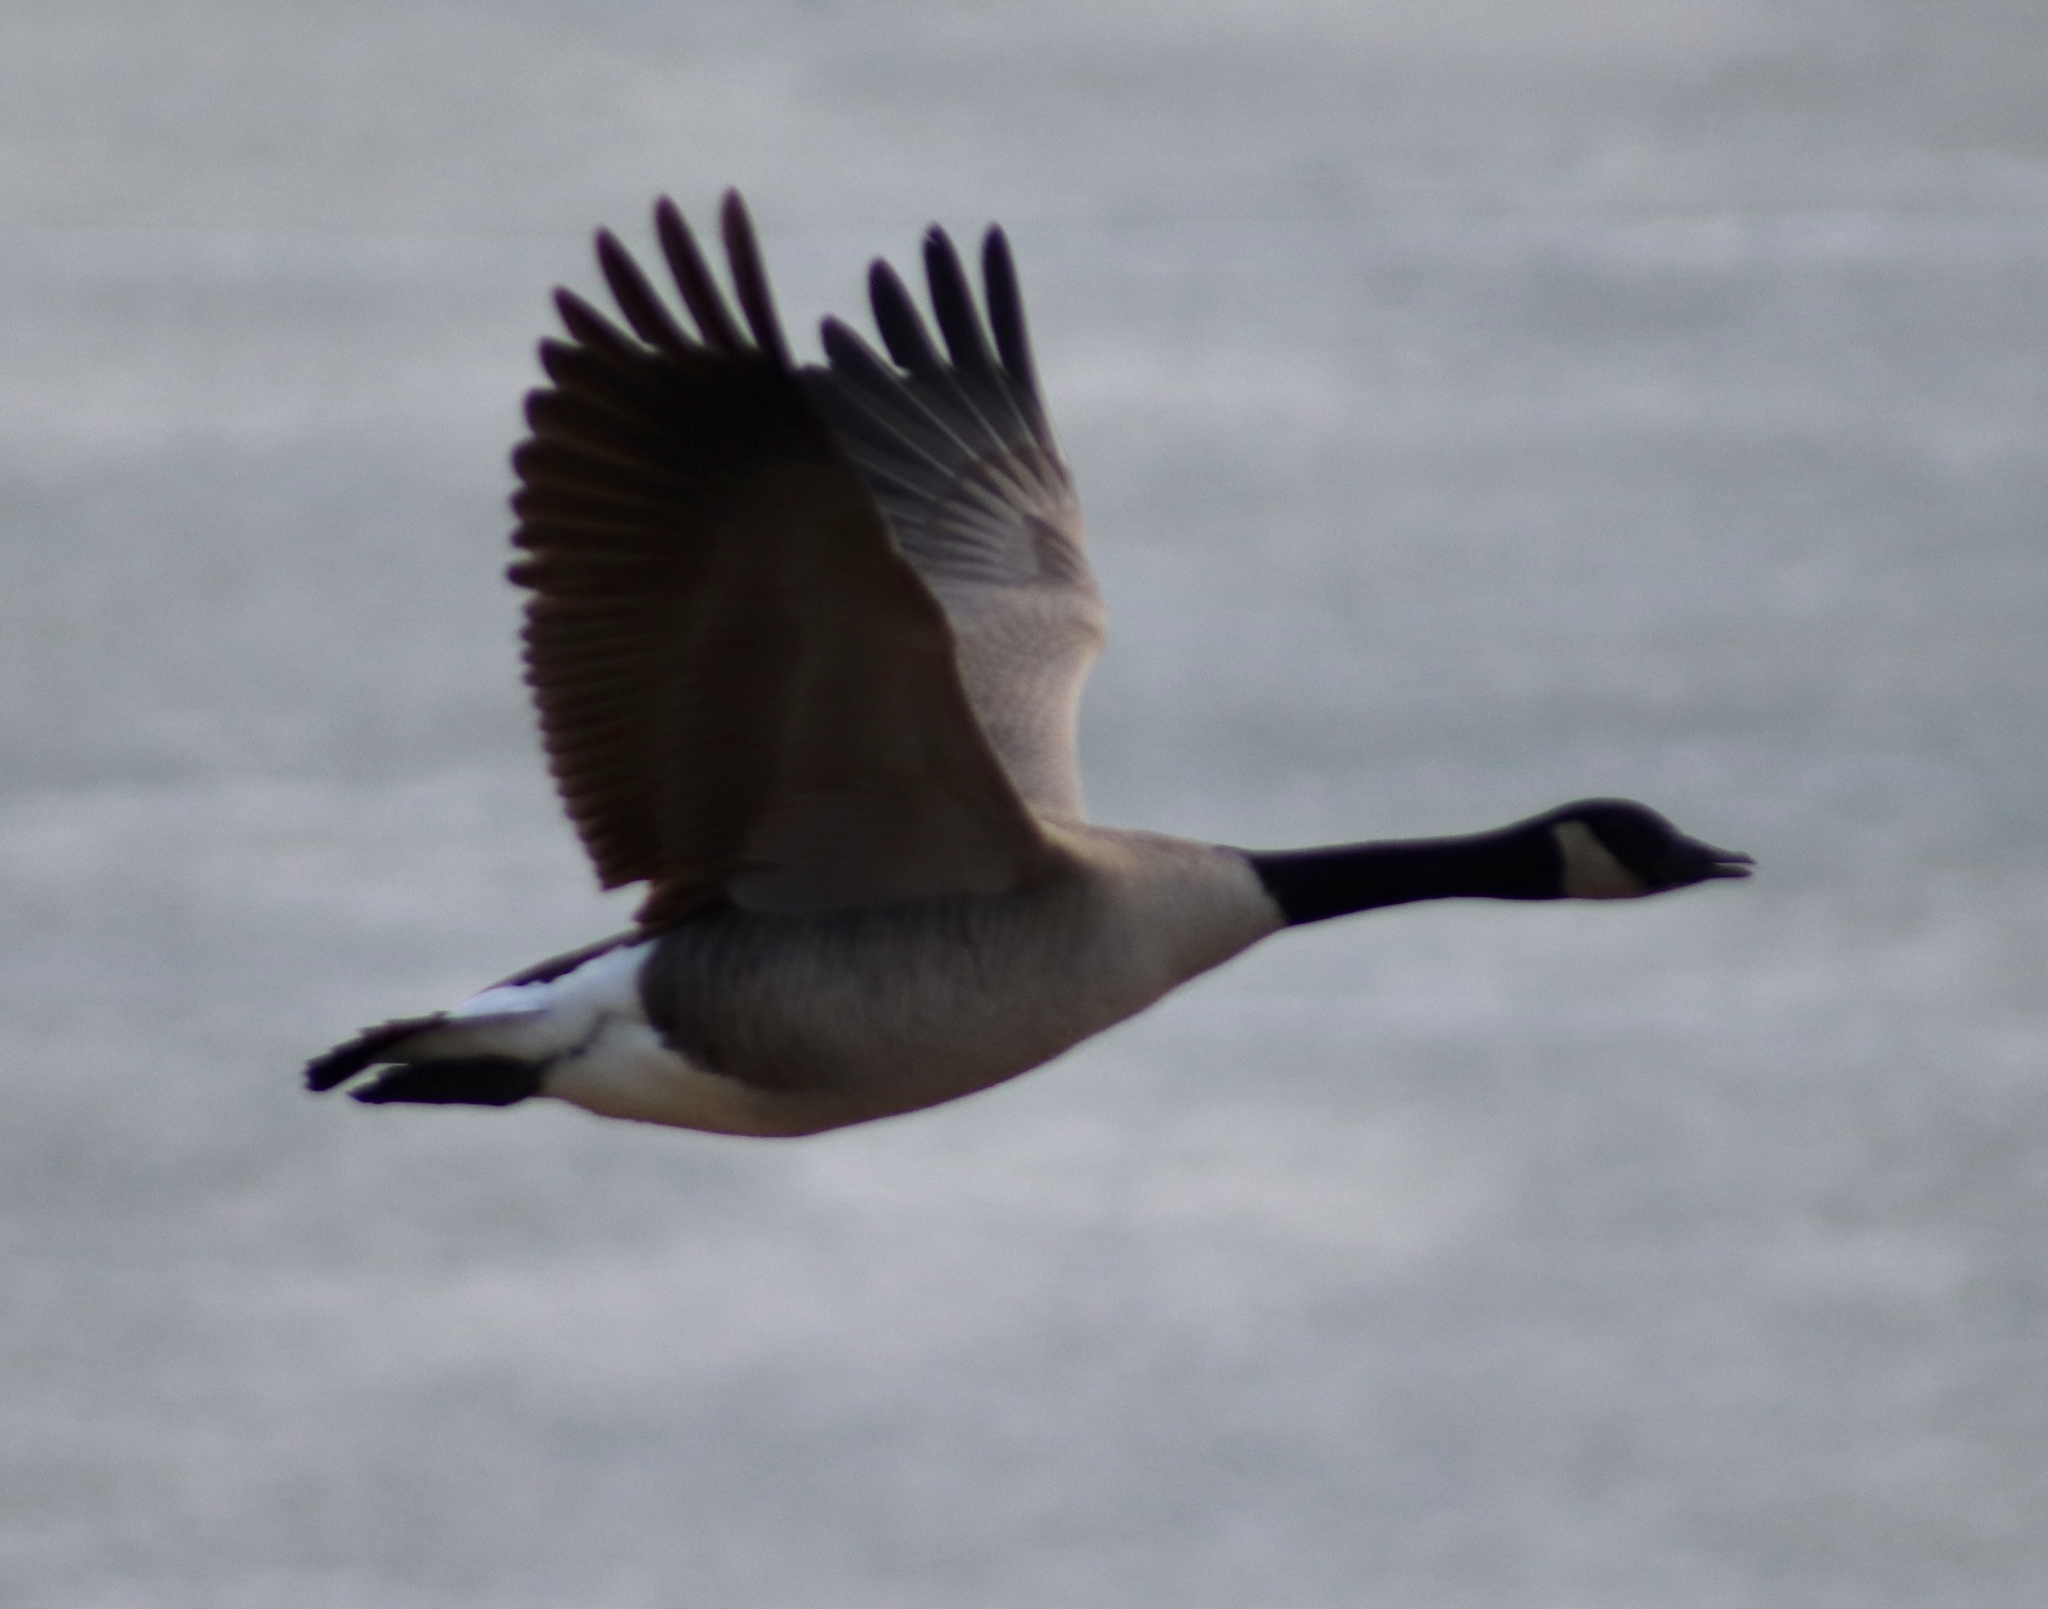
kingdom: Animalia
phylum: Chordata
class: Aves
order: Anseriformes
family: Anatidae
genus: Branta
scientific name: Branta canadensis
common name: Canada goose
